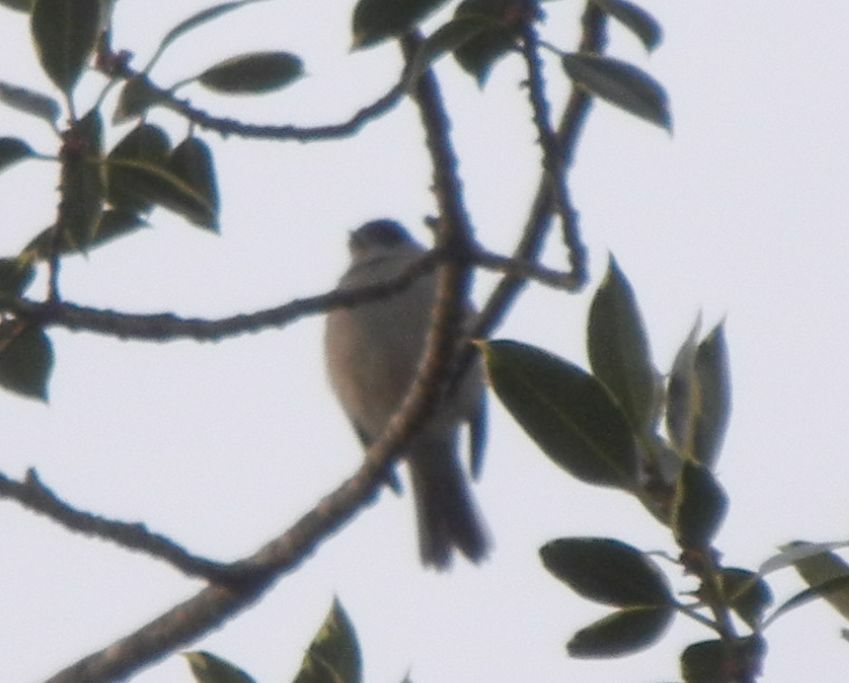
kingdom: Animalia
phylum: Chordata
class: Aves
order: Passeriformes
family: Sylviidae
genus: Sylvia
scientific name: Sylvia atricapilla
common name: Eurasian blackcap
